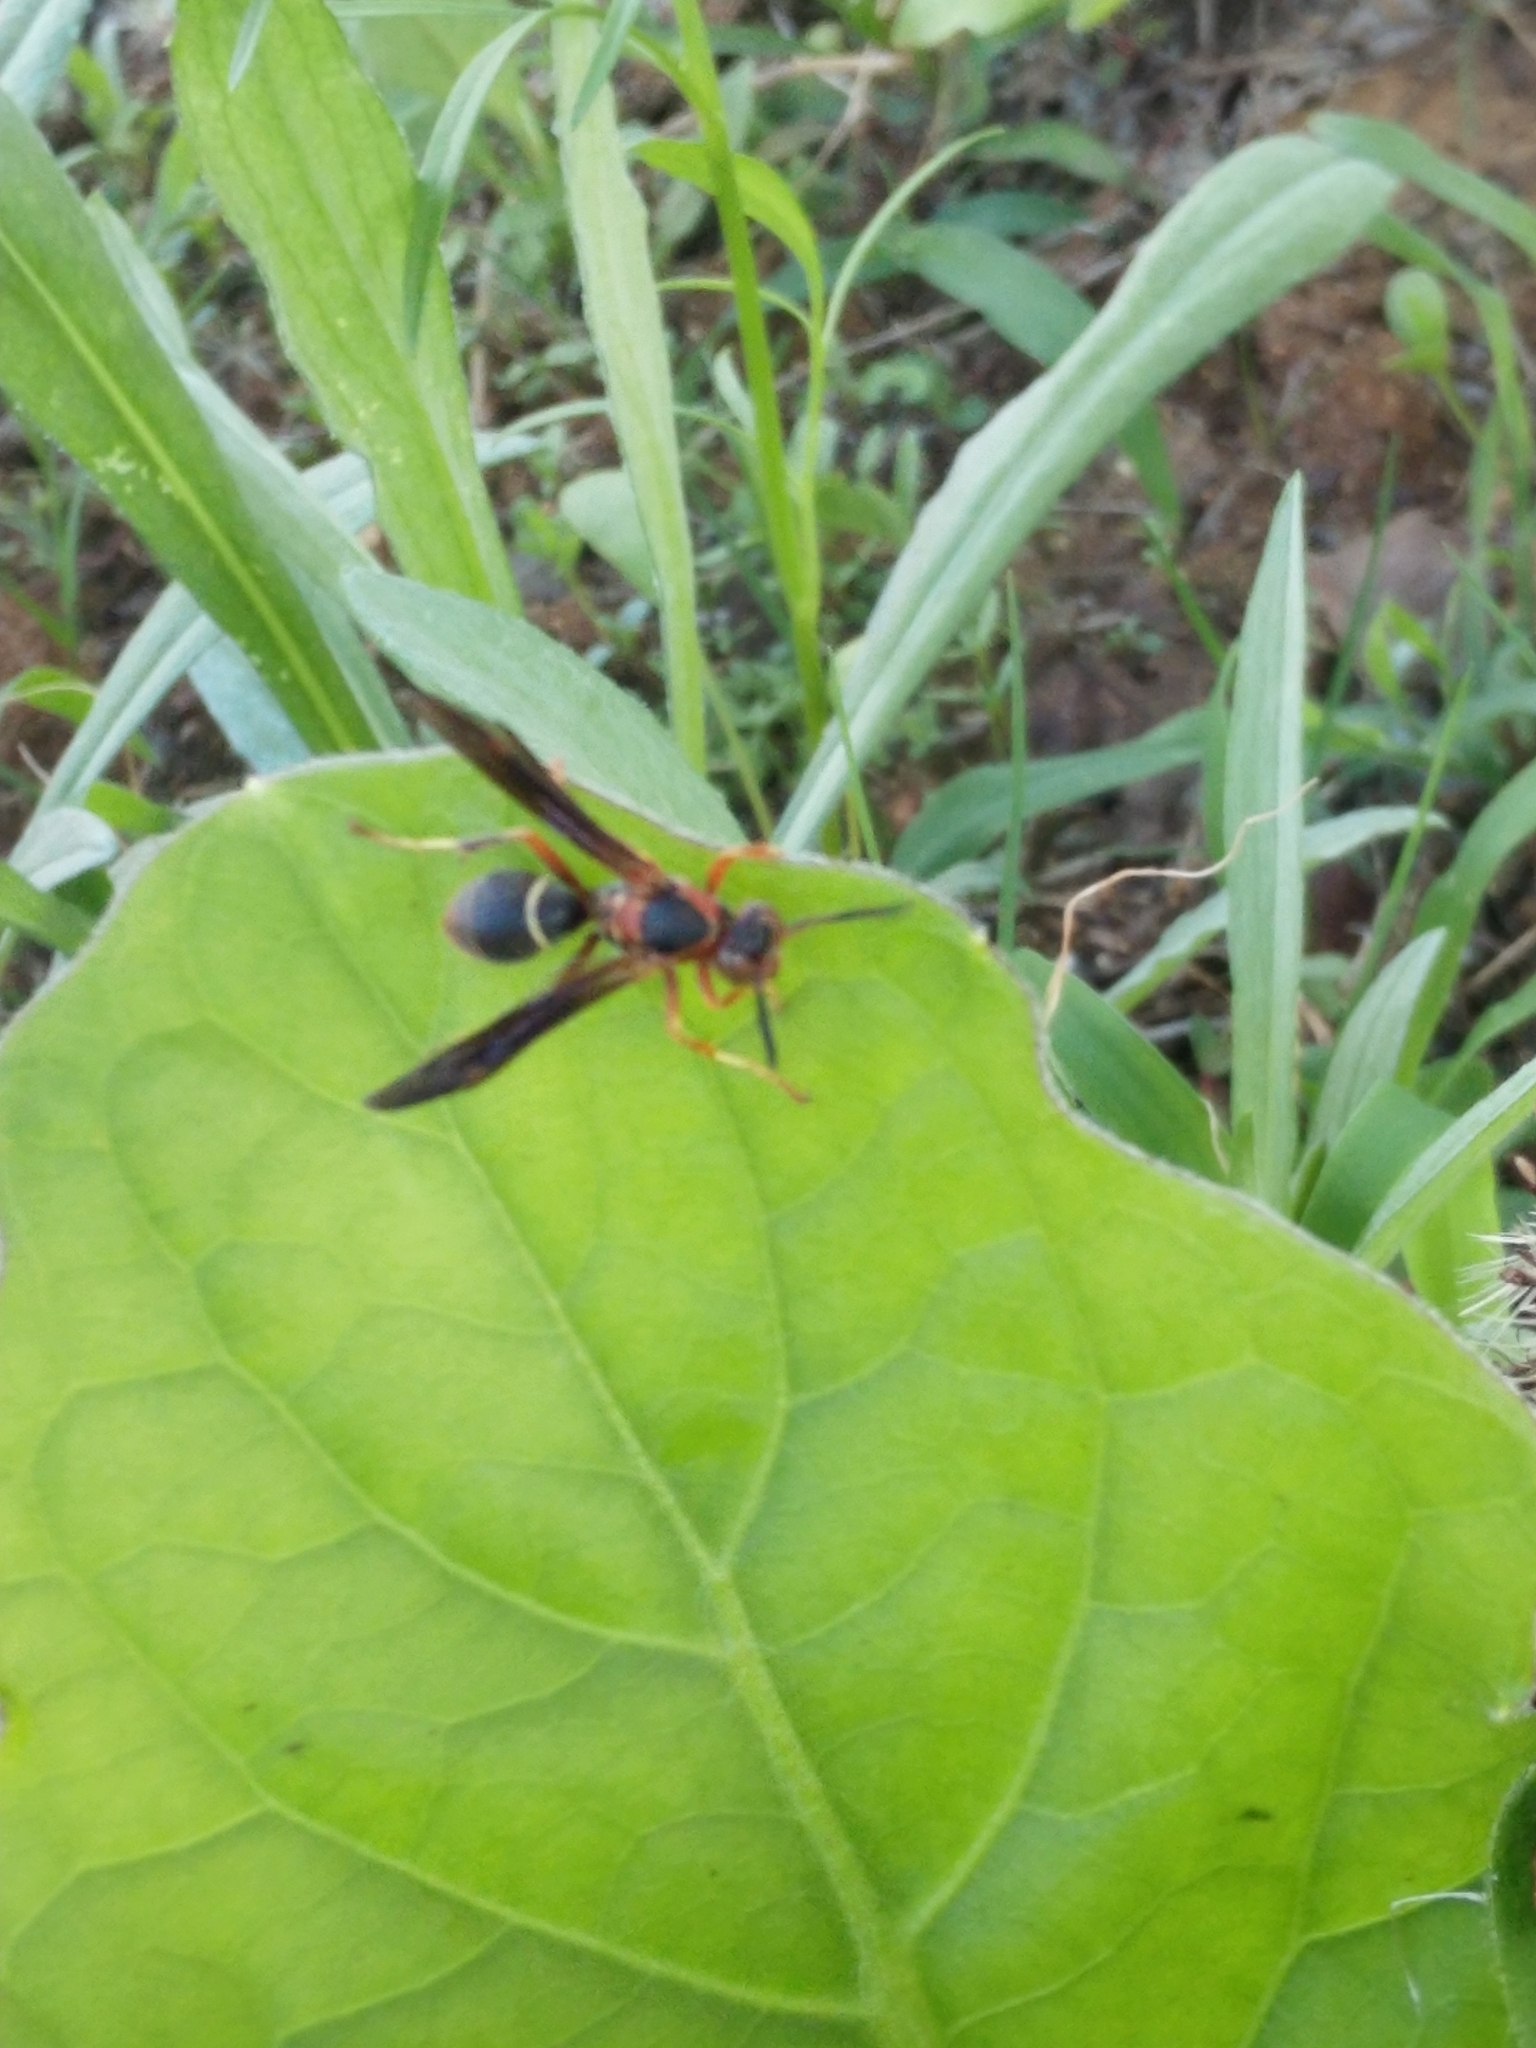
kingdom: Animalia
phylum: Arthropoda
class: Insecta
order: Hymenoptera
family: Eumenidae
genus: Polistes
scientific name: Polistes parametricus
